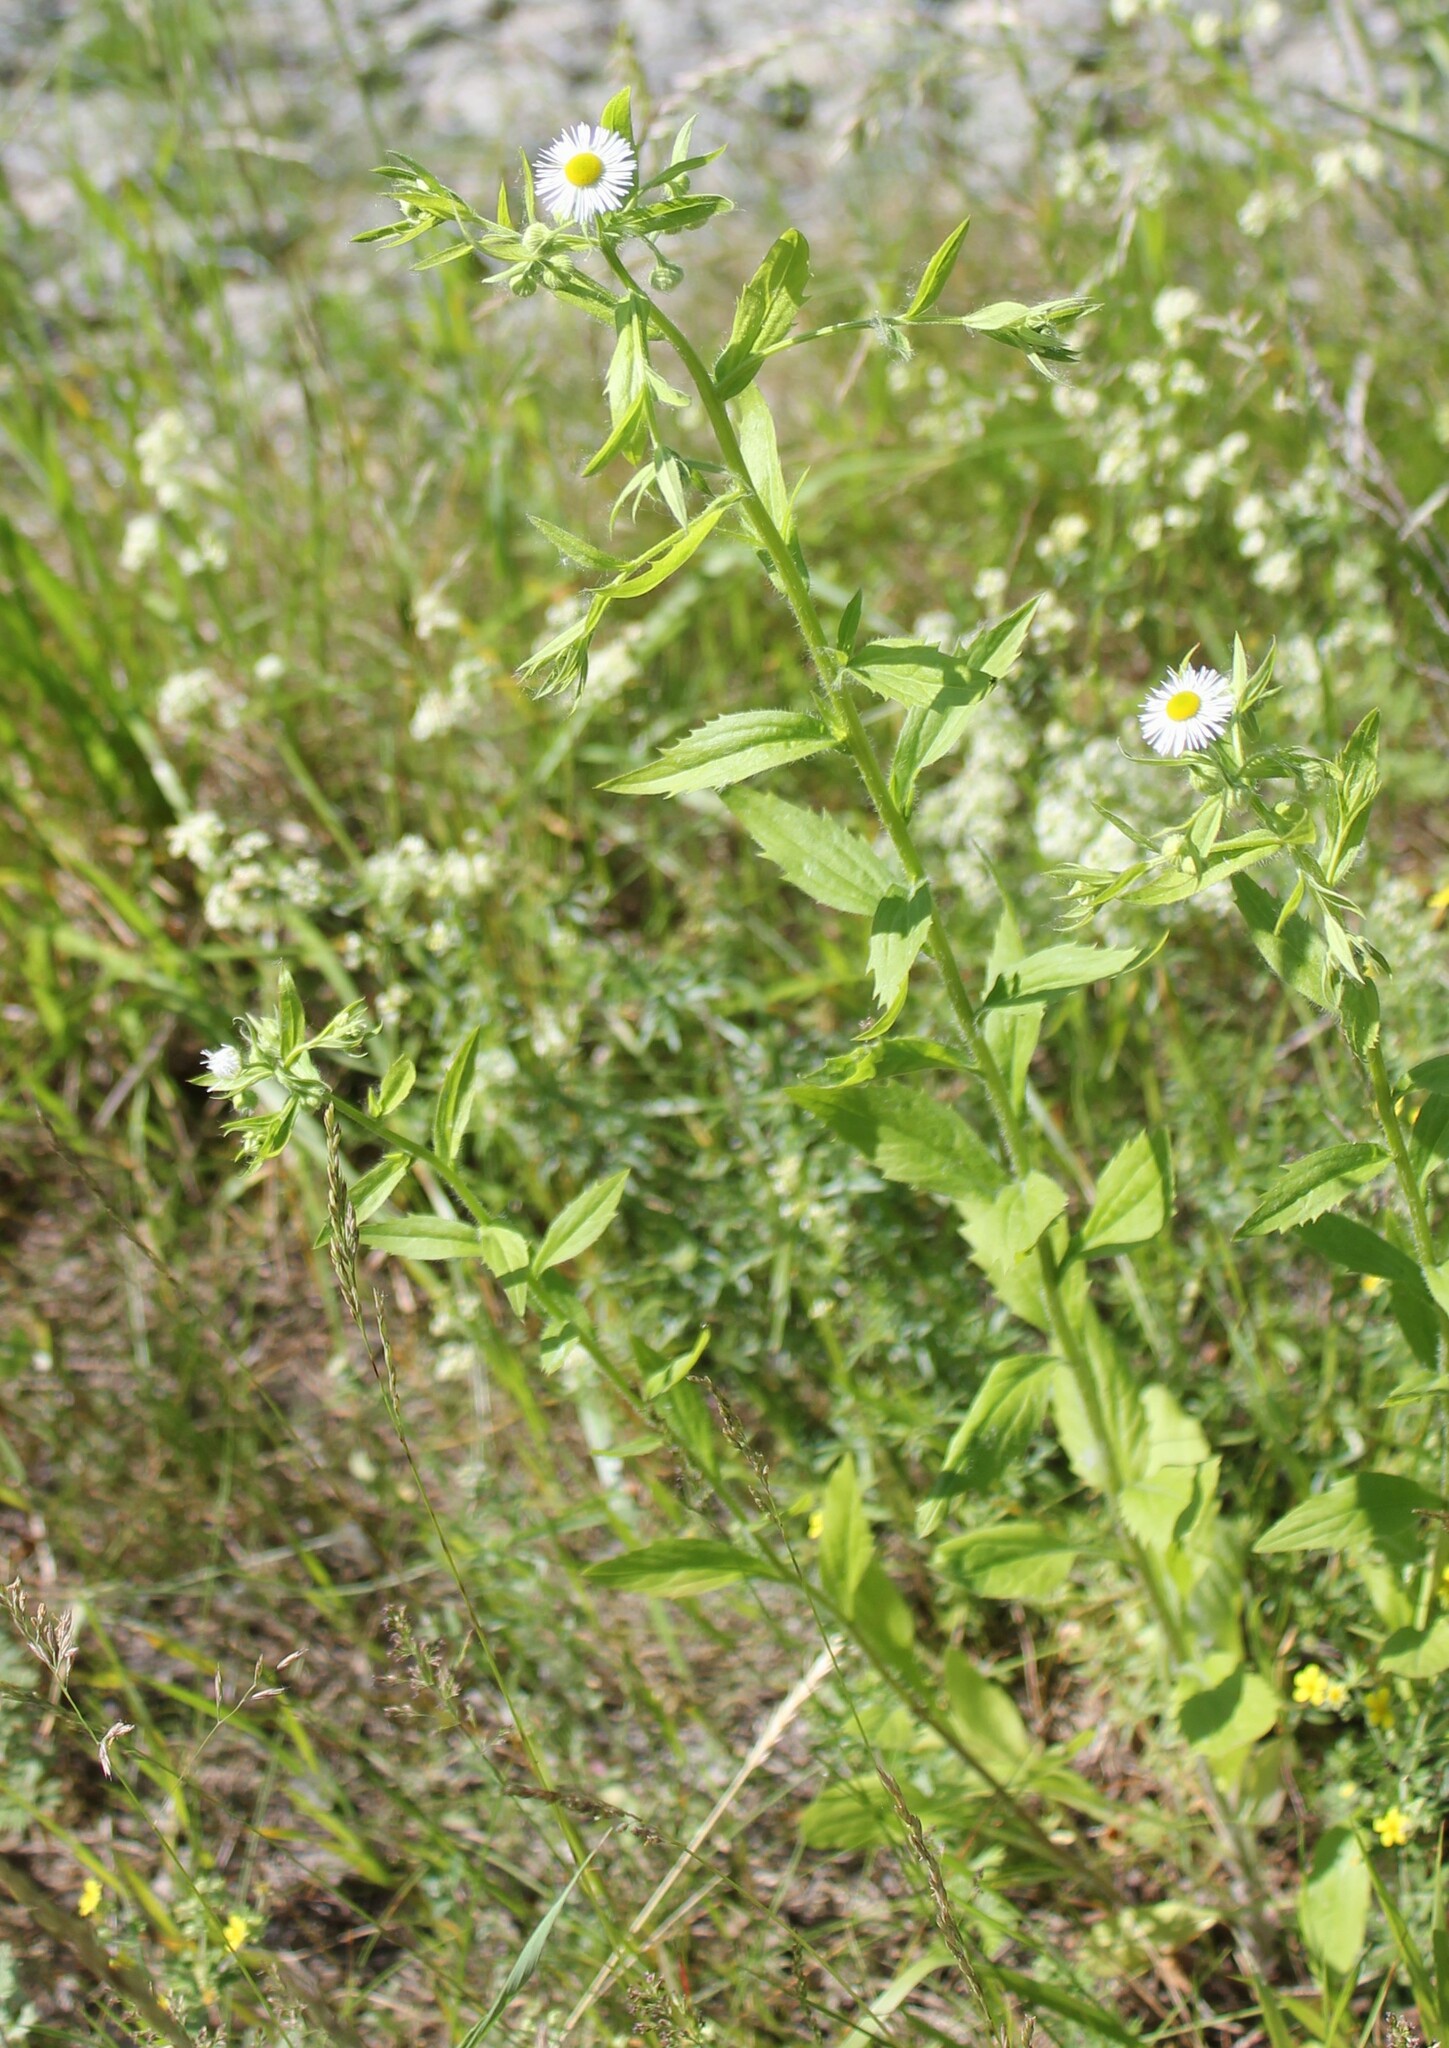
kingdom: Plantae
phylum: Tracheophyta
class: Magnoliopsida
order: Asterales
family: Asteraceae
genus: Erigeron
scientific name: Erigeron annuus
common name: Tall fleabane
